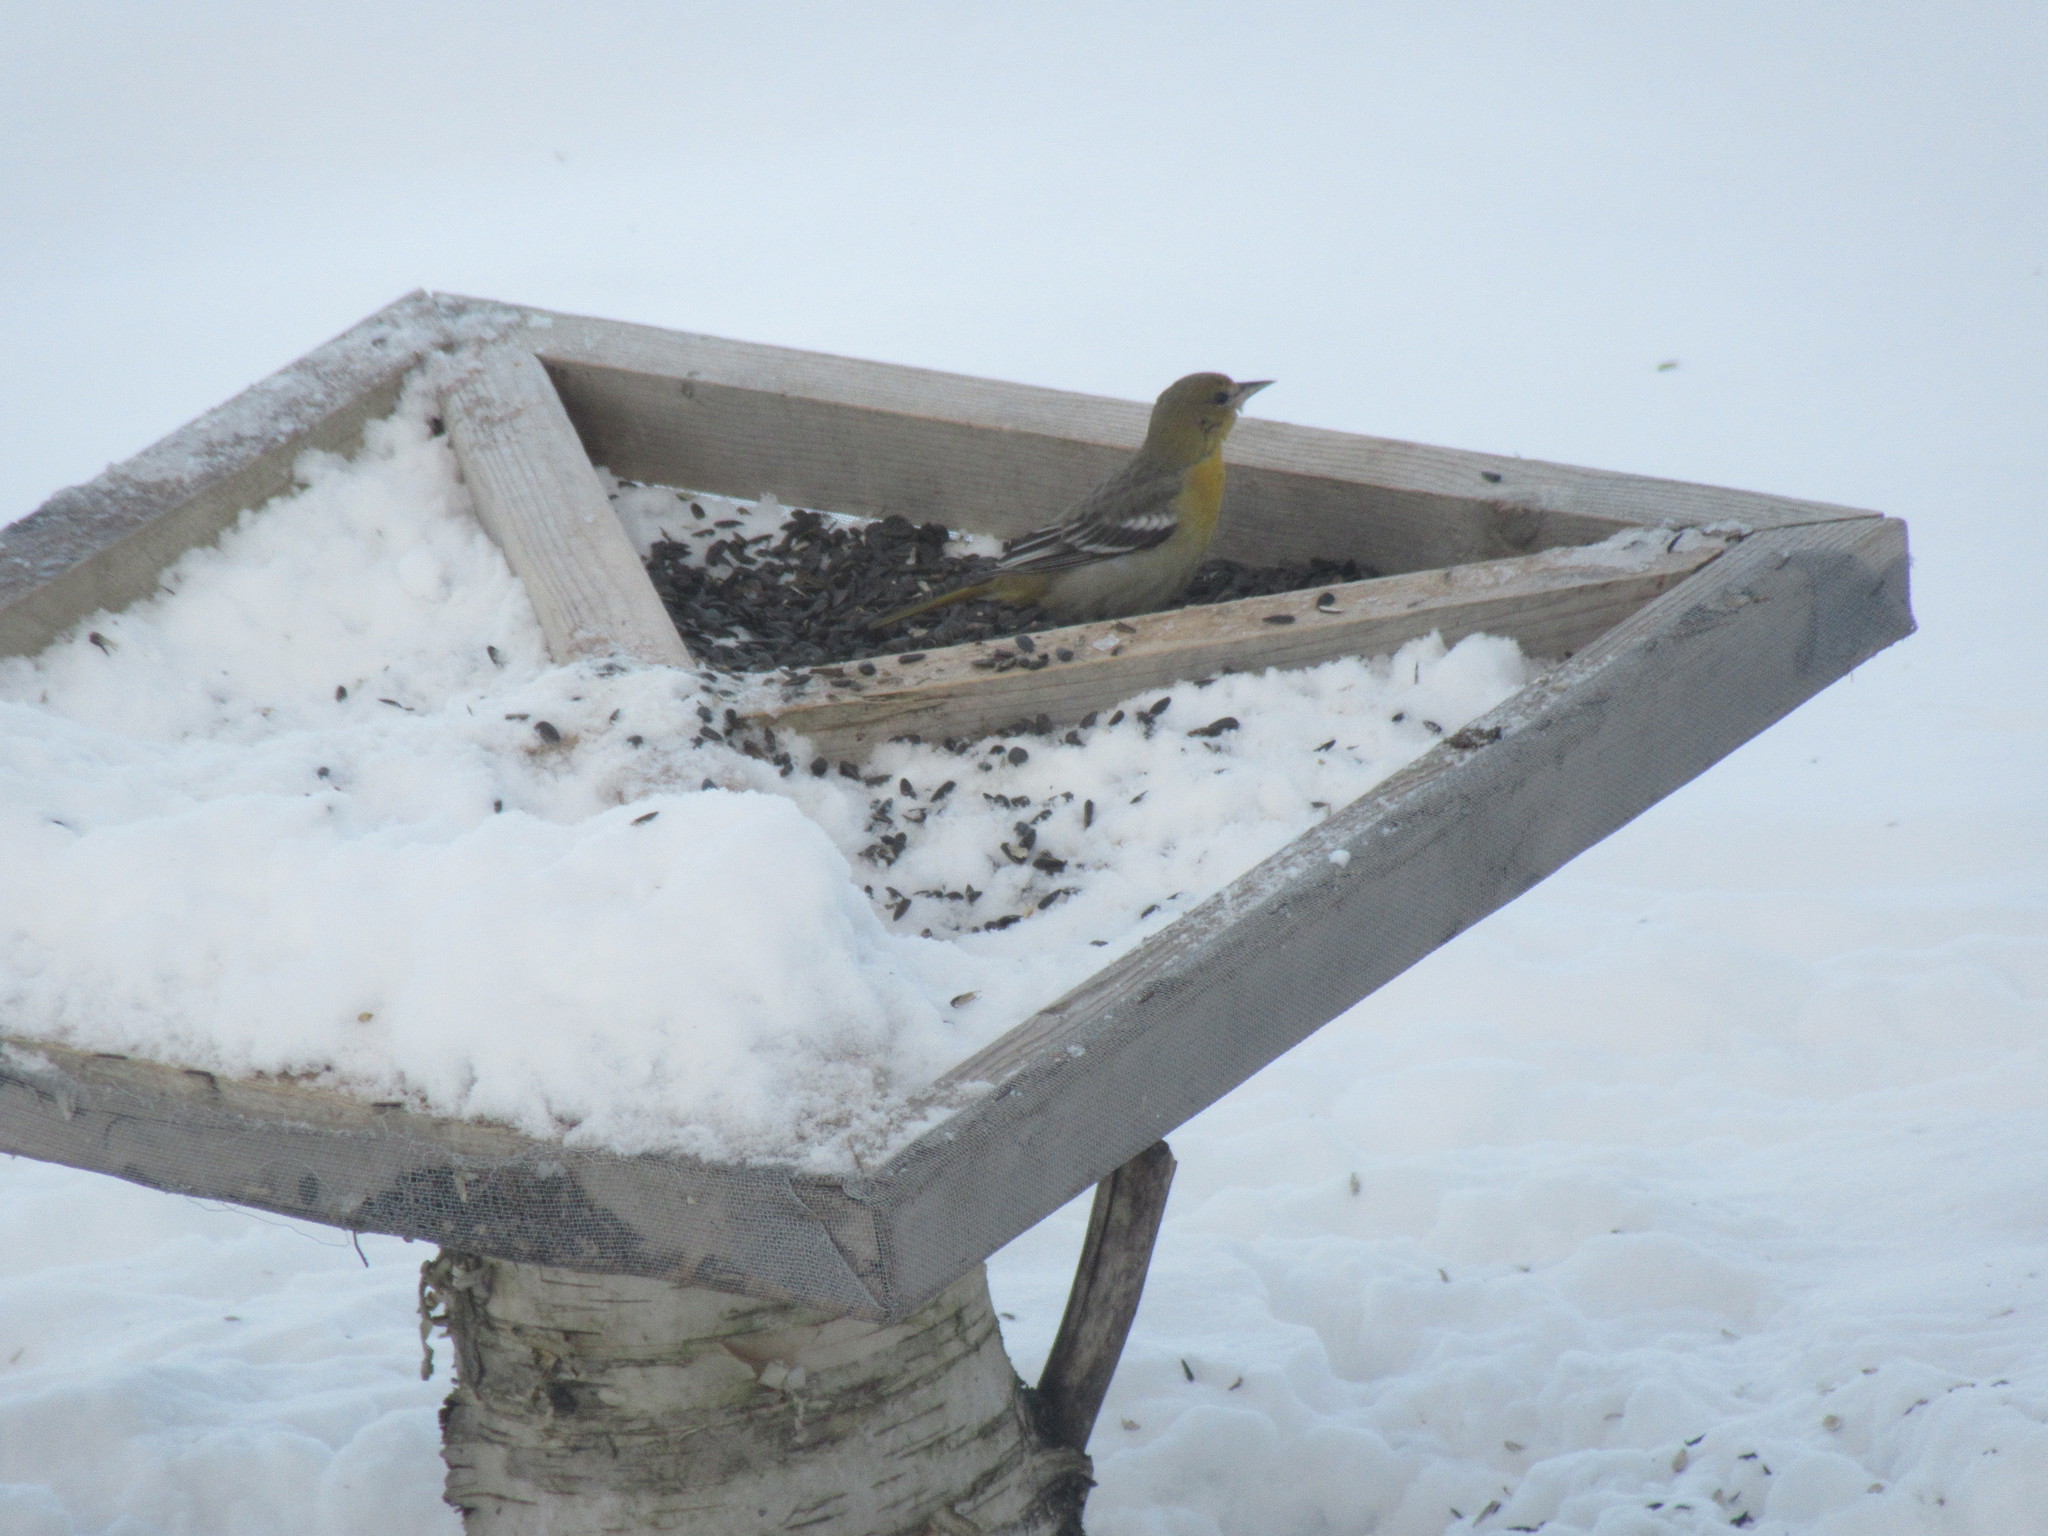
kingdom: Animalia
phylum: Chordata
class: Aves
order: Passeriformes
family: Icteridae
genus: Icterus
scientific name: Icterus galbula
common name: Baltimore oriole
